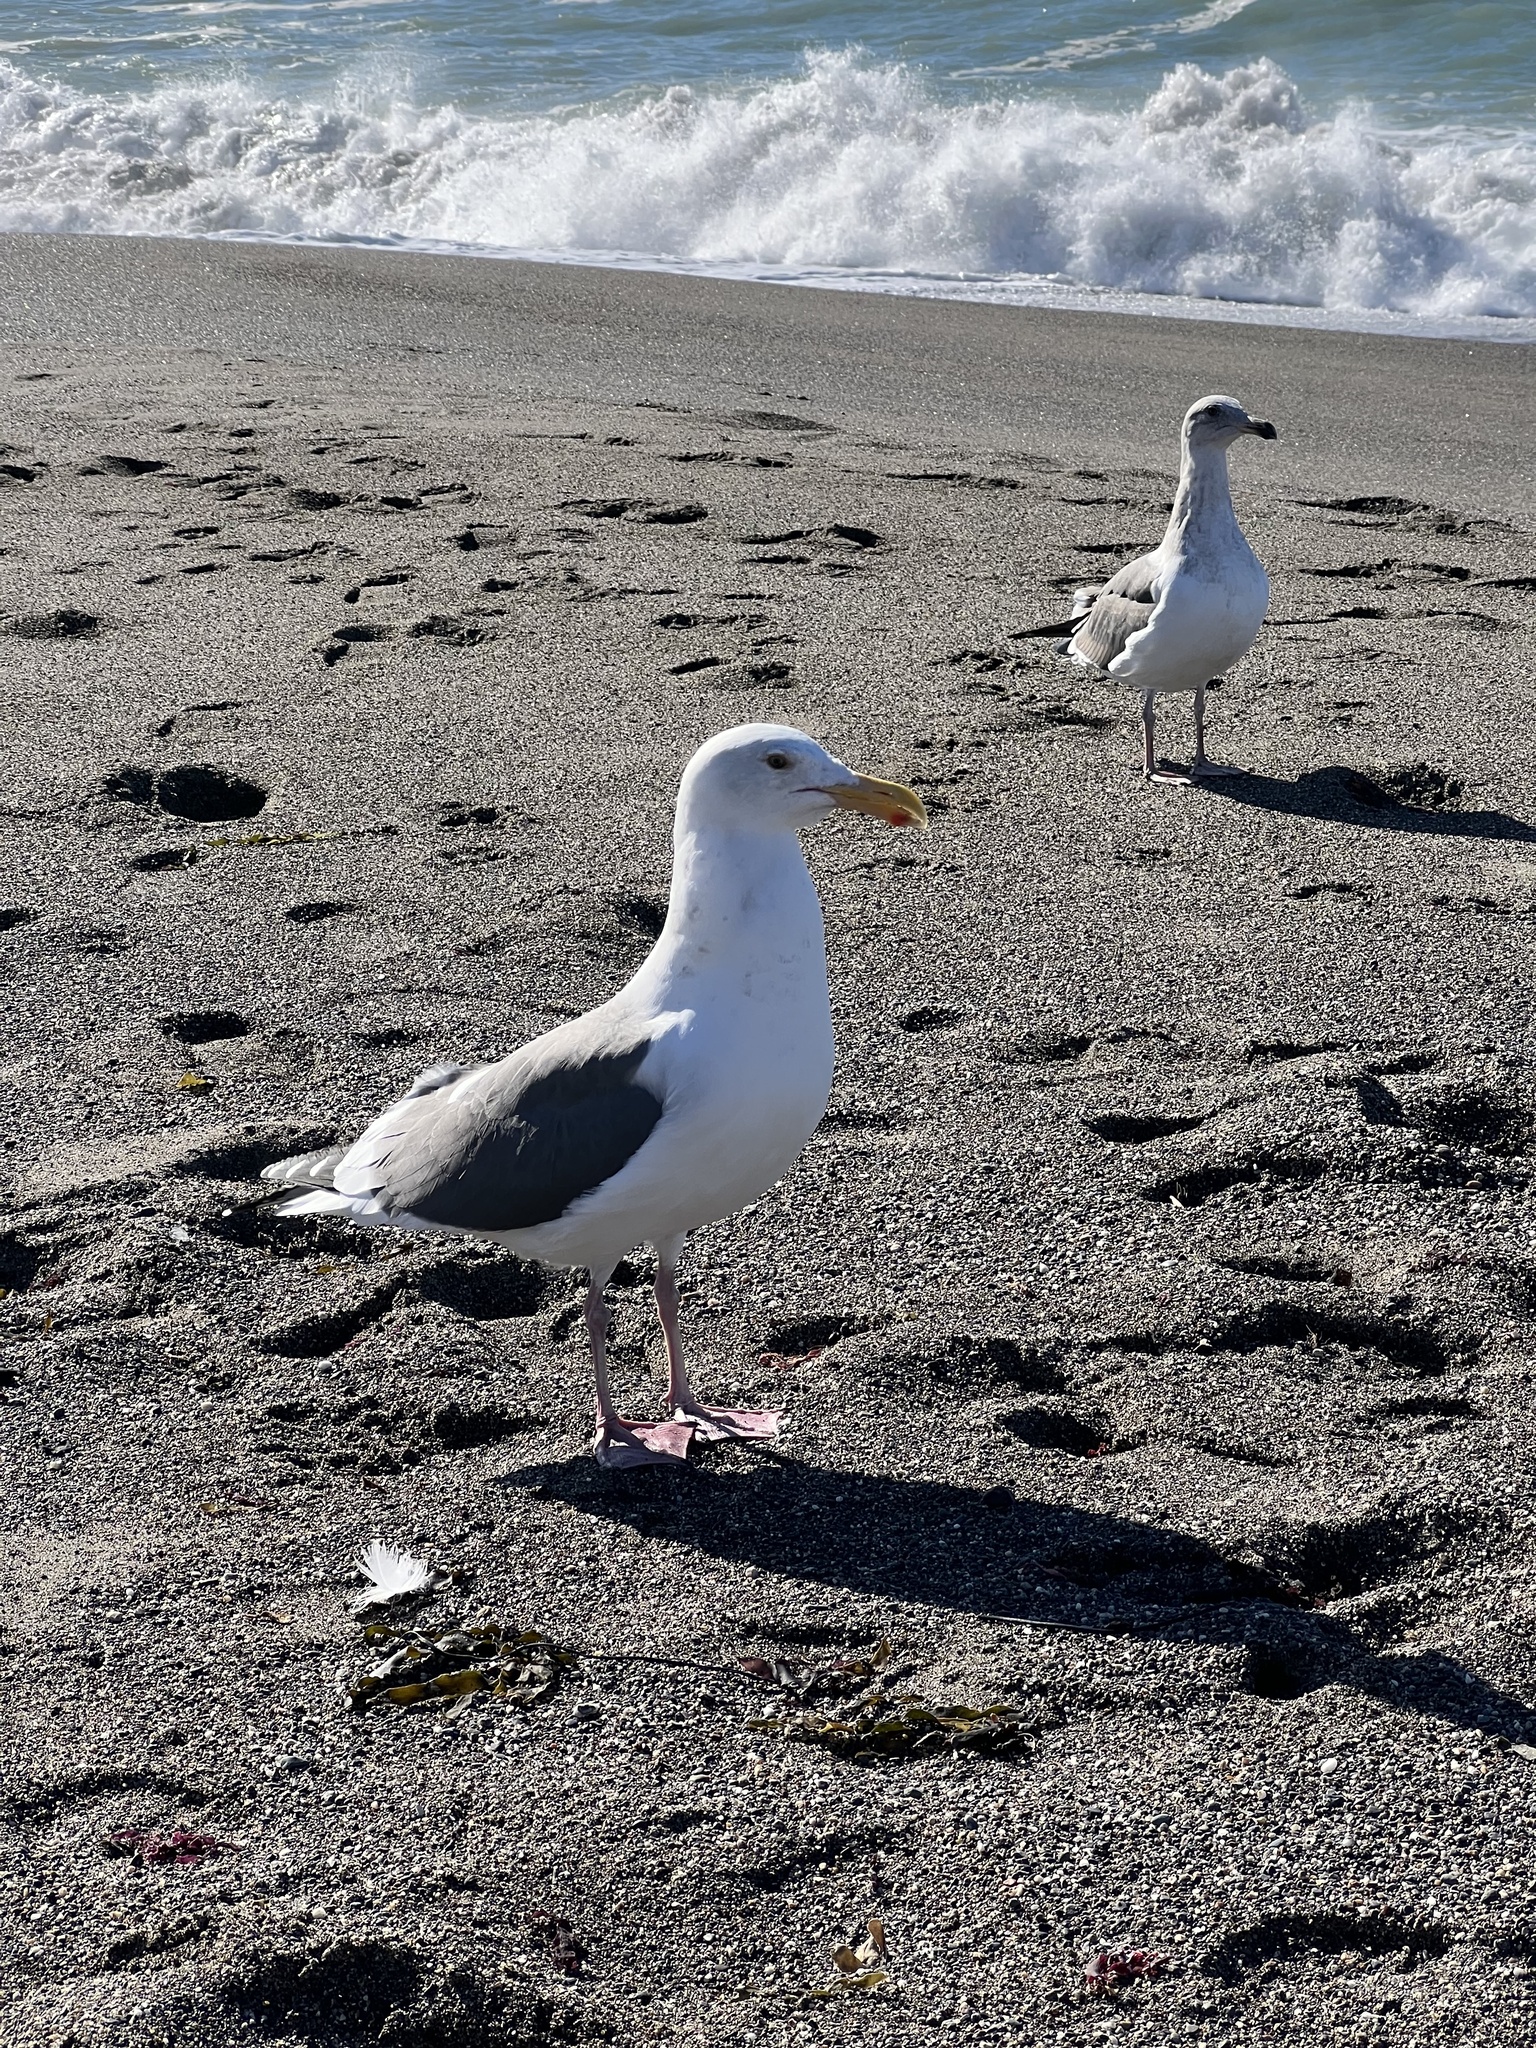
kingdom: Animalia
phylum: Chordata
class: Aves
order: Charadriiformes
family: Laridae
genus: Larus
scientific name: Larus occidentalis
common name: Western gull
